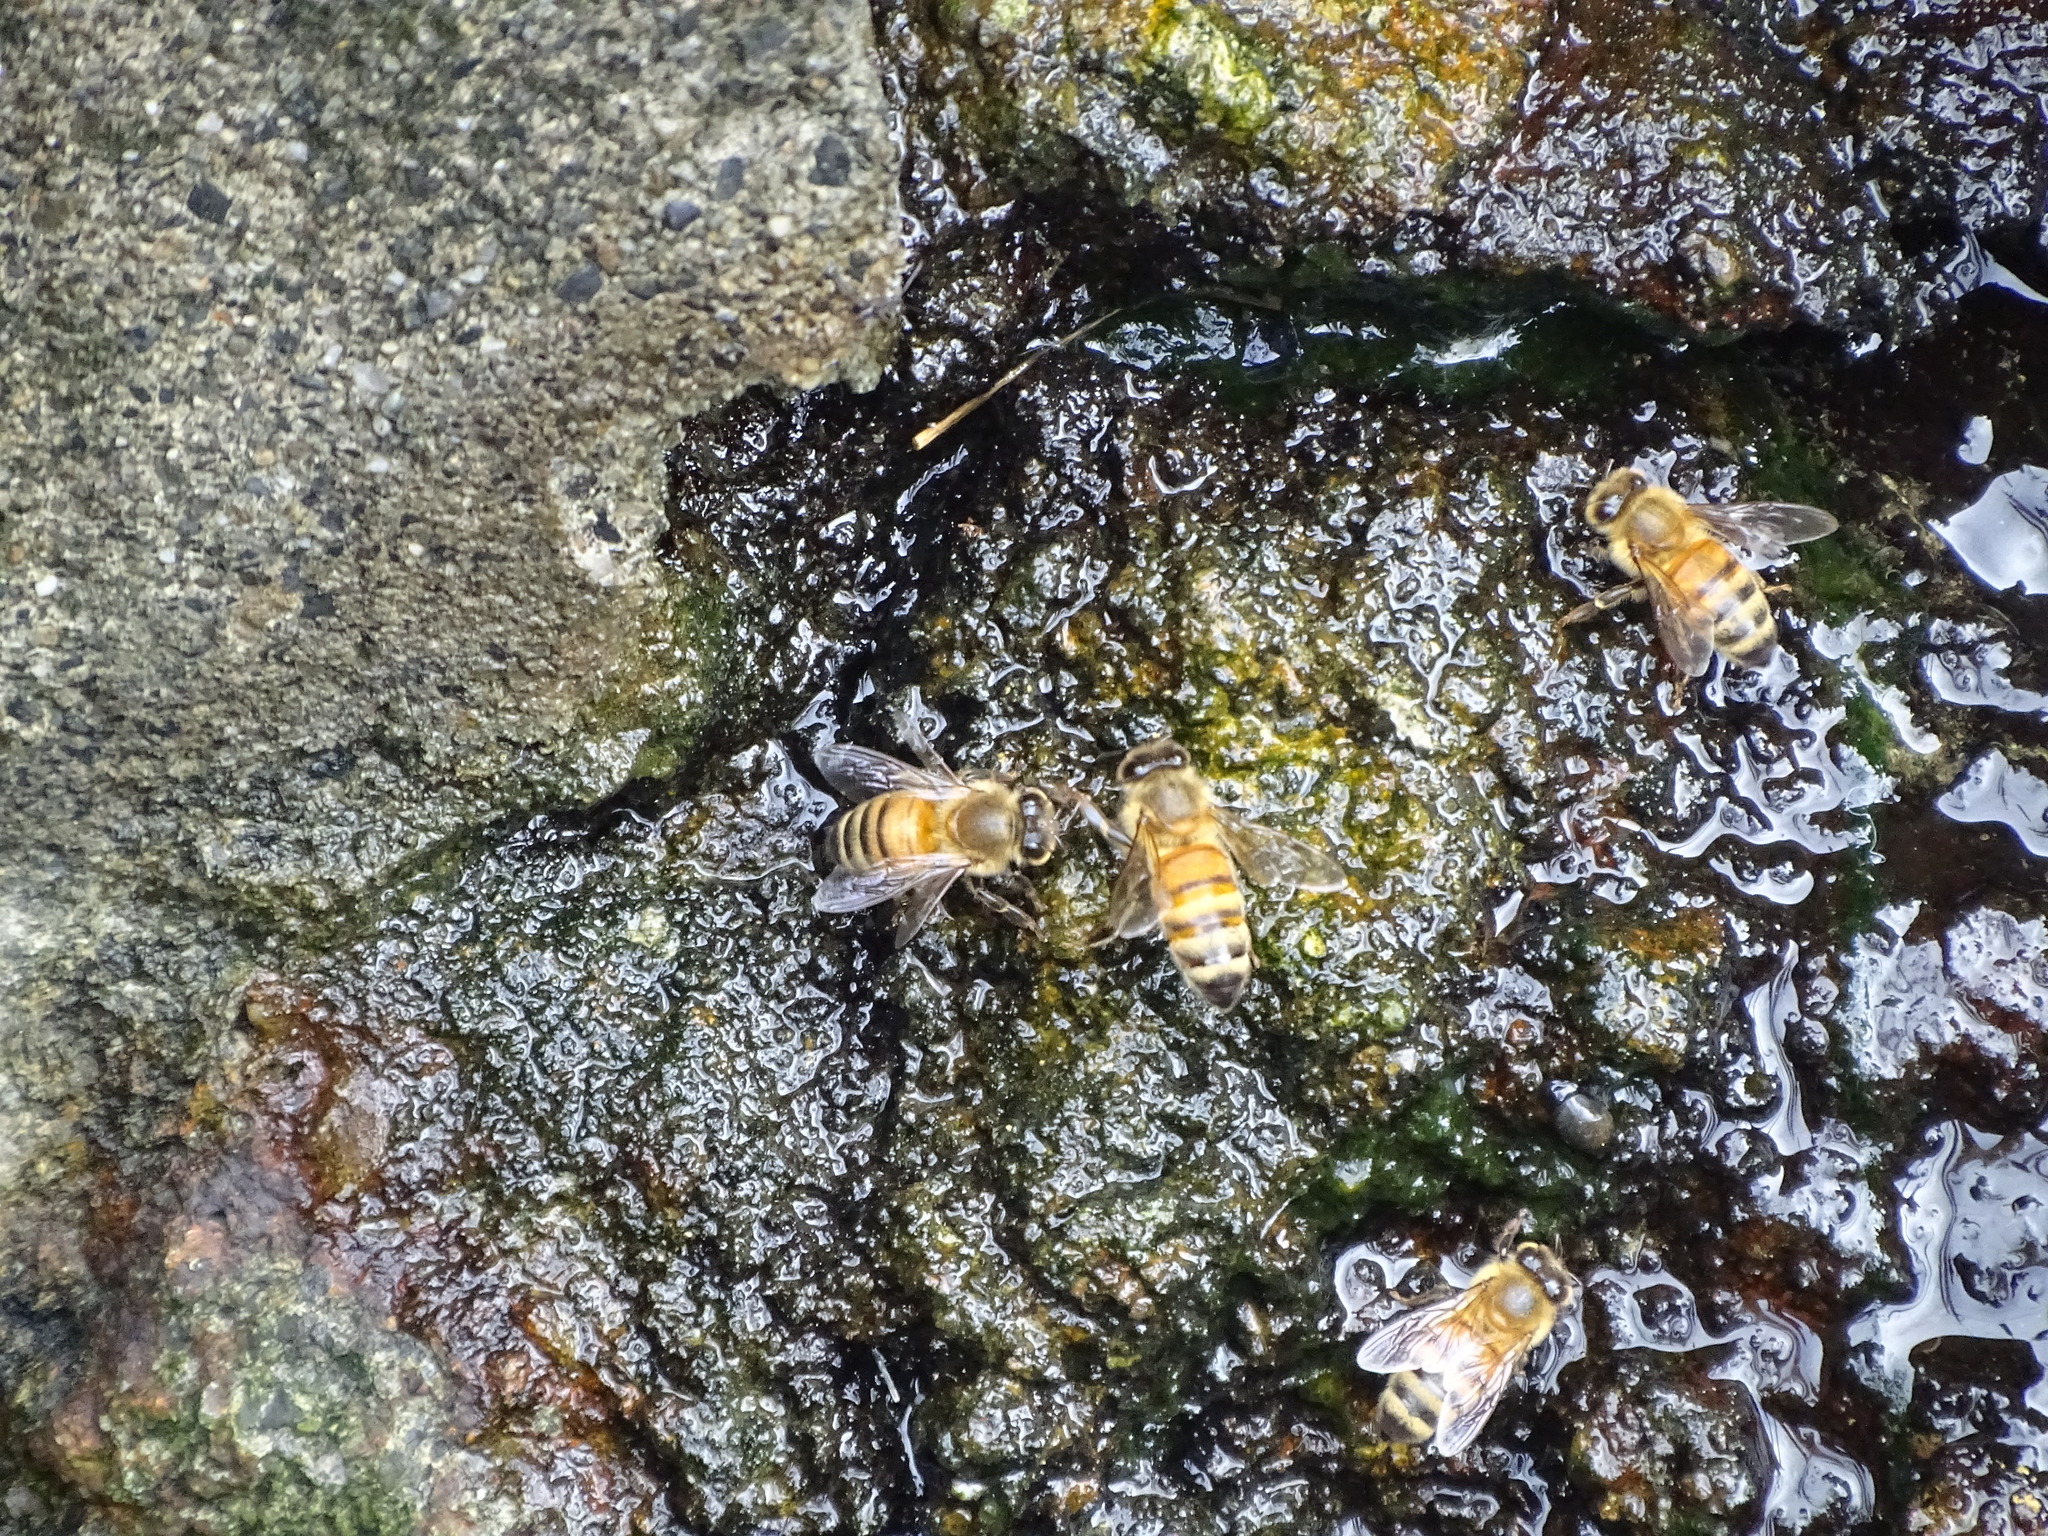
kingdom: Animalia
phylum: Arthropoda
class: Insecta
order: Hymenoptera
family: Apidae
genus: Apis
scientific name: Apis mellifera
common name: Honey bee
